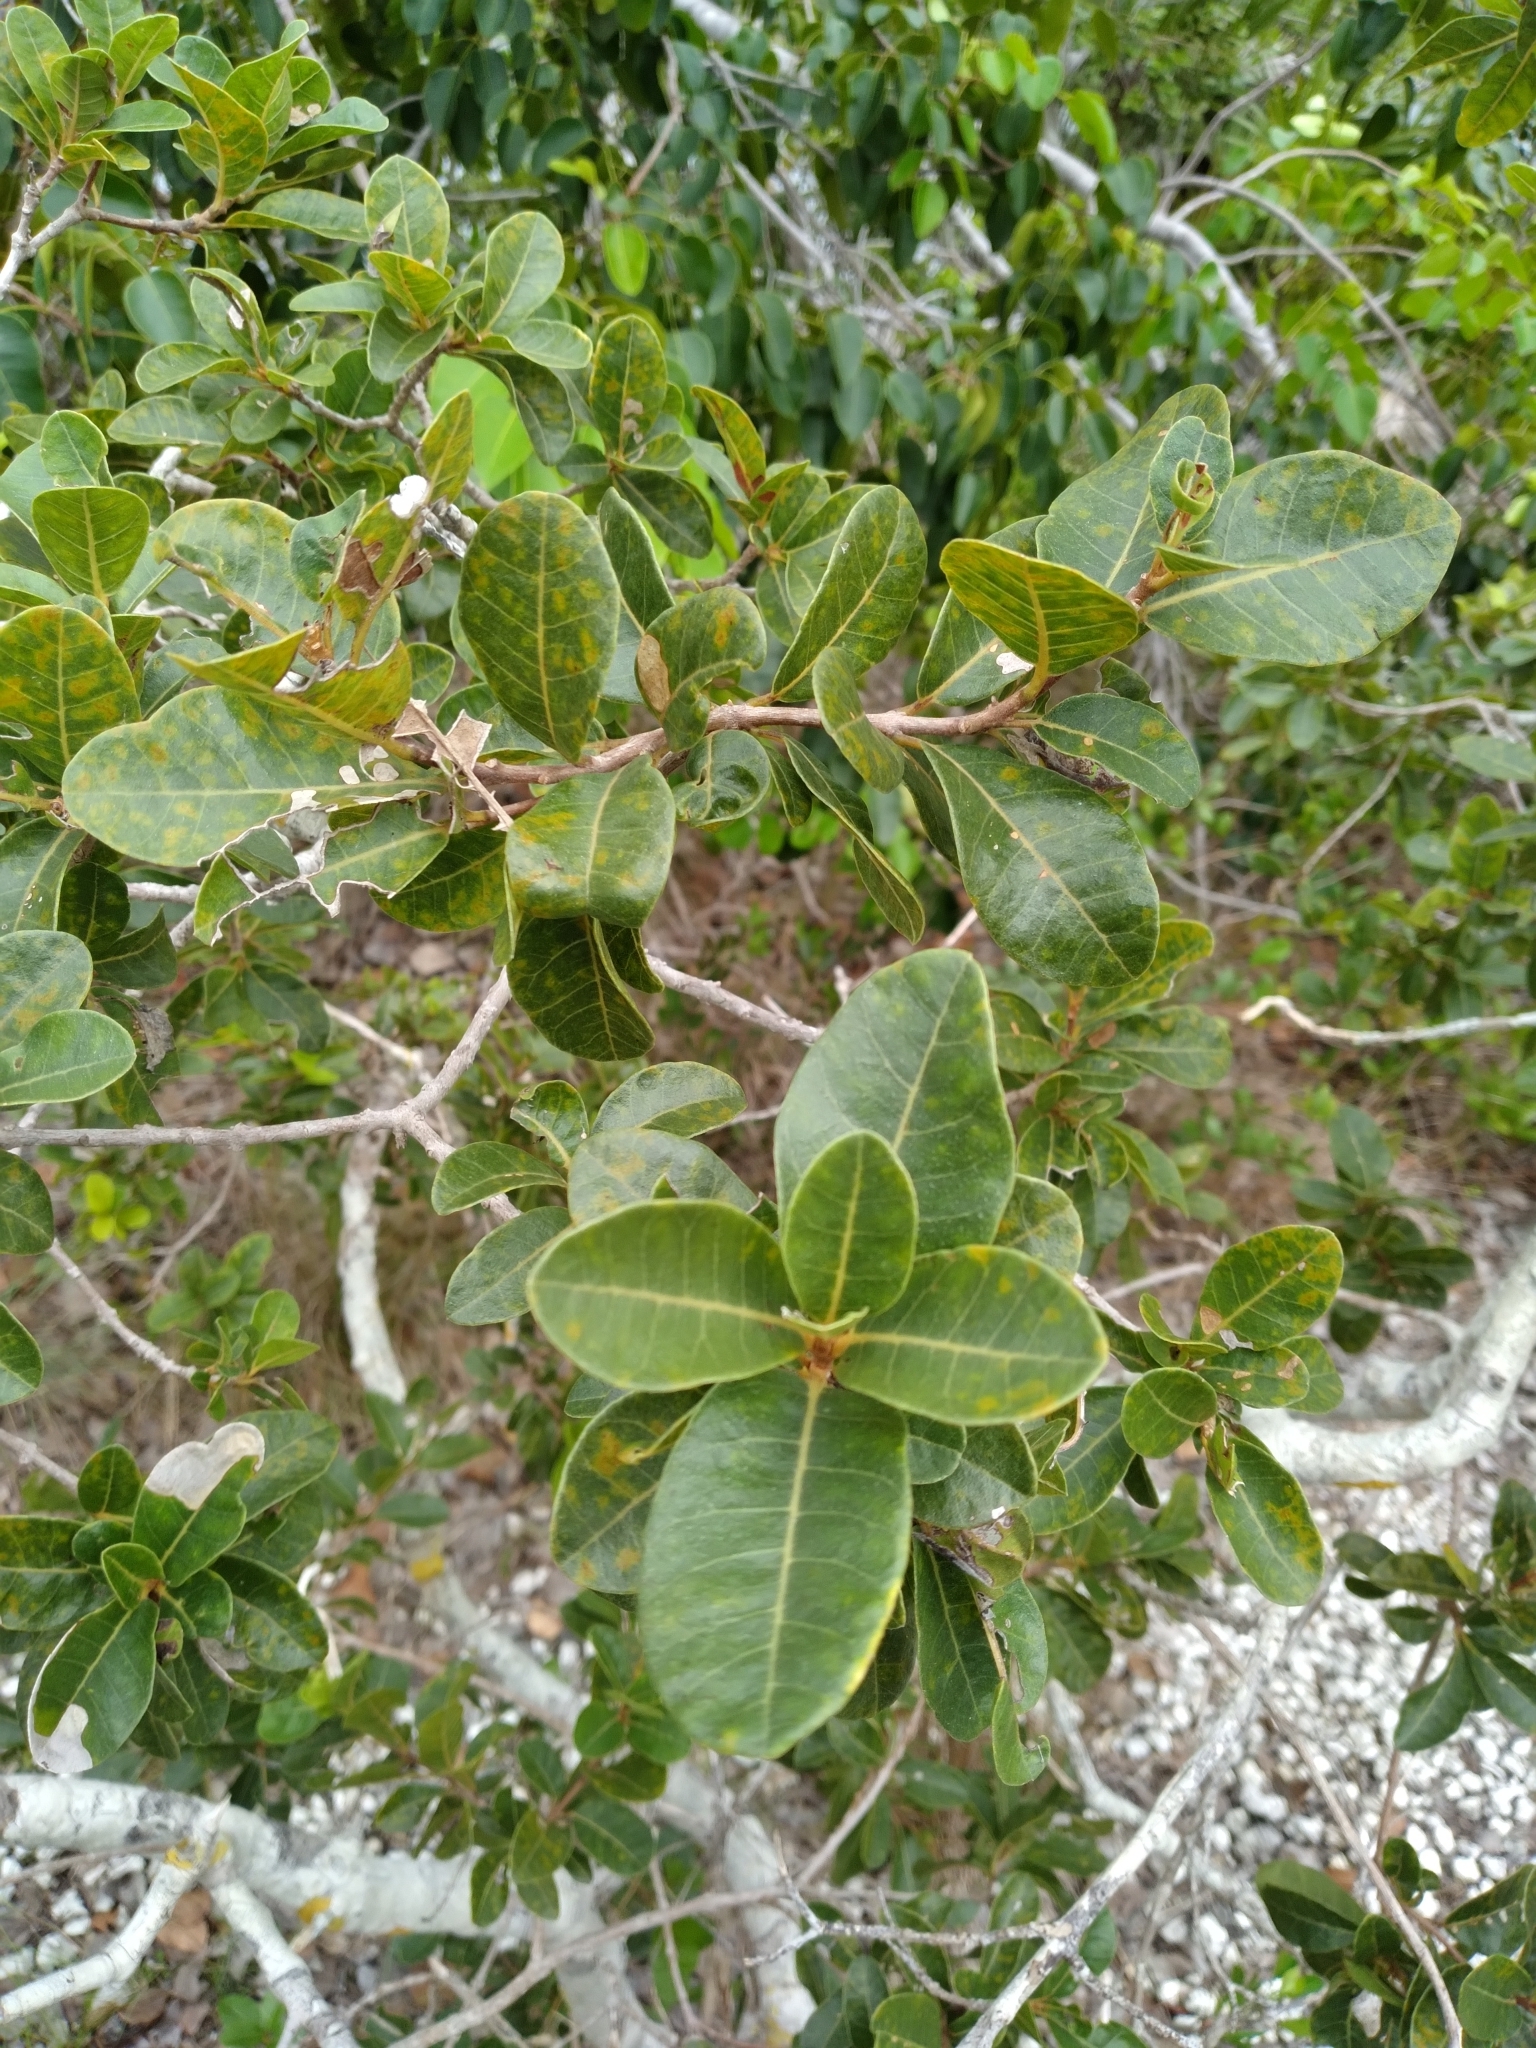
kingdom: Plantae
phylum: Tracheophyta
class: Magnoliopsida
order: Caryophyllales
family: Nyctaginaceae
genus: Pisonia
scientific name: Pisonia rotundata
